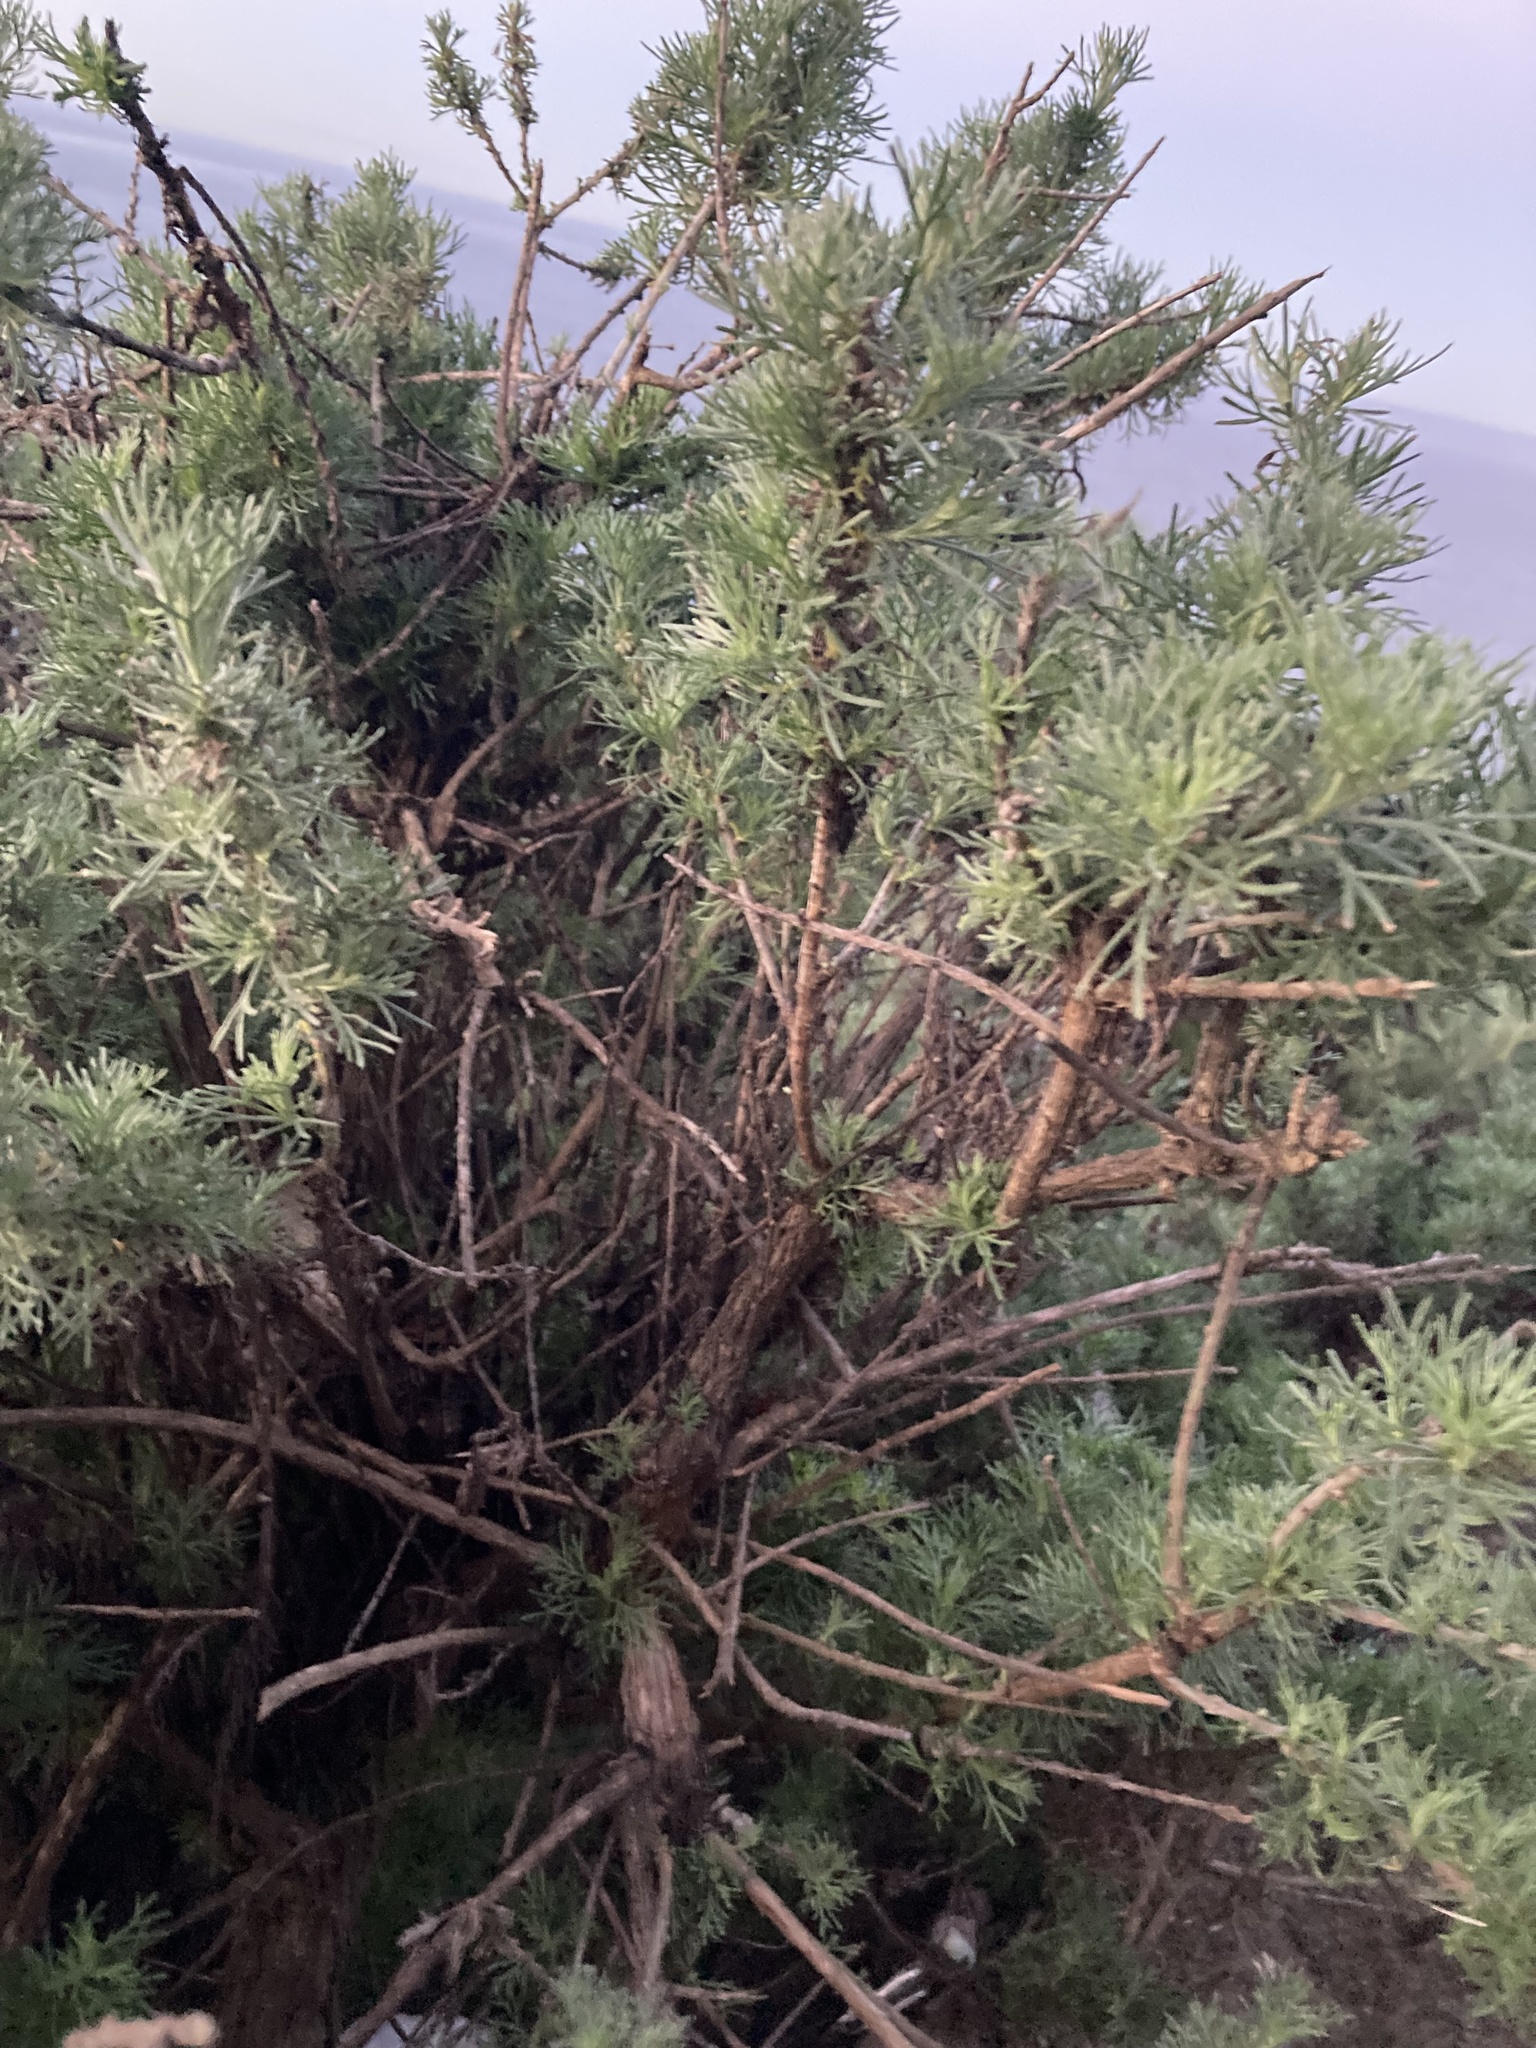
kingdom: Plantae
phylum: Tracheophyta
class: Magnoliopsida
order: Asterales
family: Asteraceae
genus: Artemisia
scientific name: Artemisia californica
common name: California sagebrush
